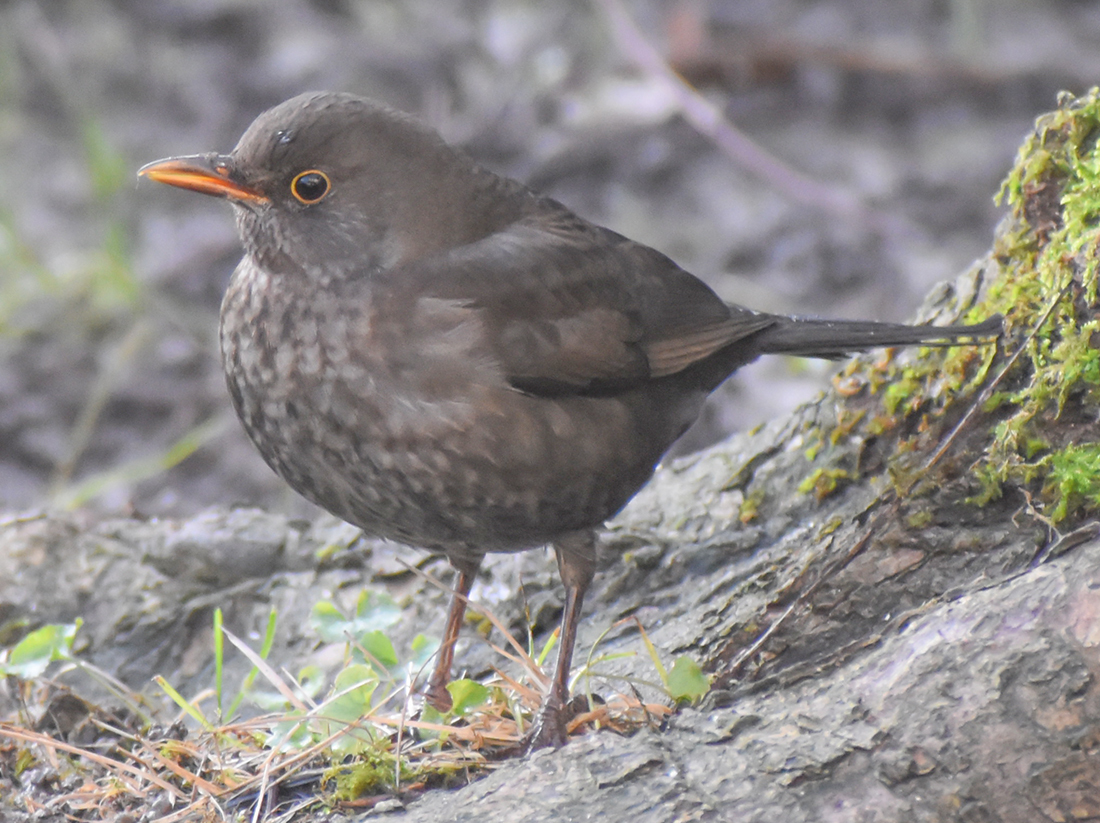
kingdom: Animalia
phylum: Chordata
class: Aves
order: Passeriformes
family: Turdidae
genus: Turdus
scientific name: Turdus merula
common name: Common blackbird
